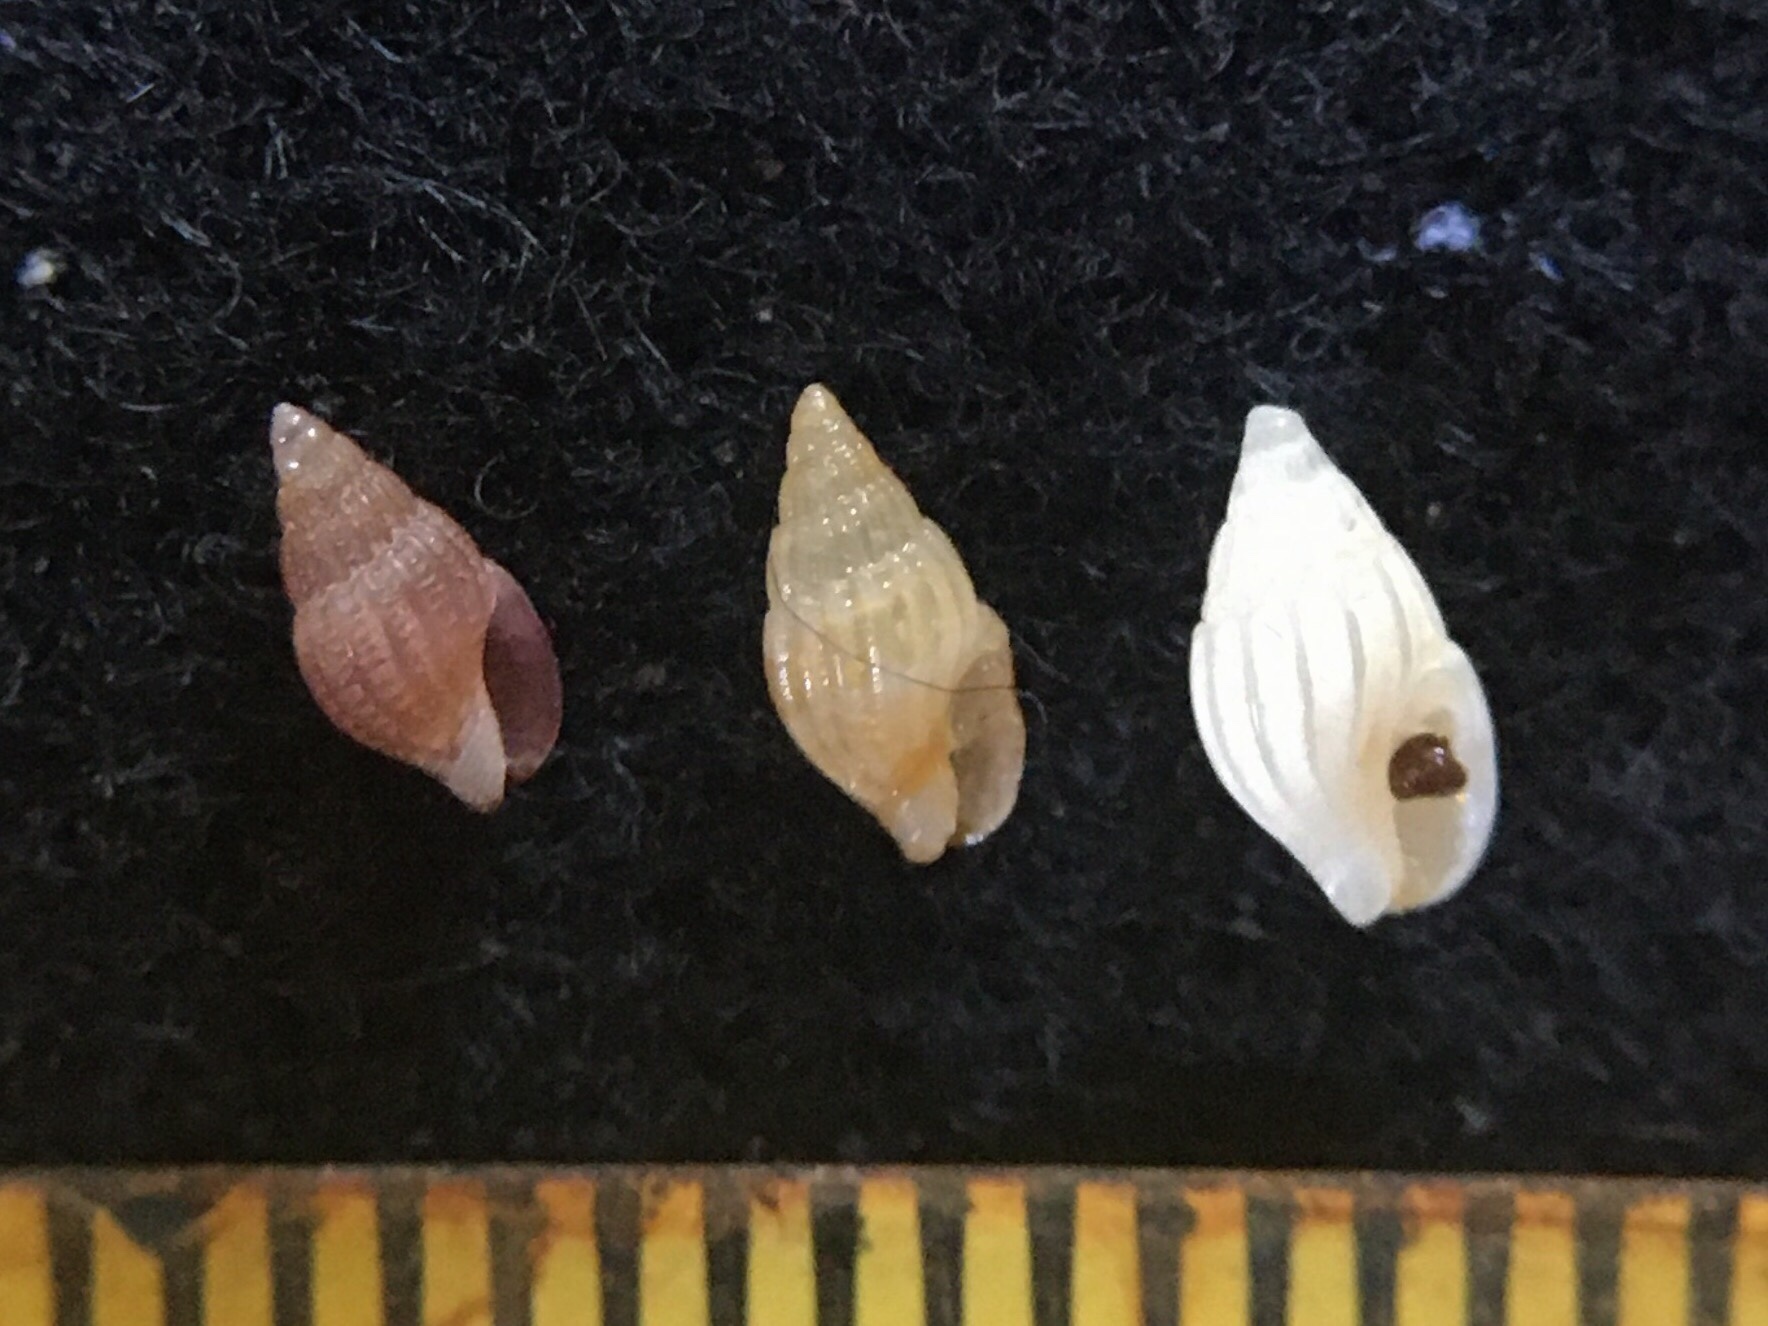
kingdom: Animalia
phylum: Mollusca
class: Gastropoda
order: Neogastropoda
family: Columbellidae
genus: Anachis
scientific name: Anachis isabellei
